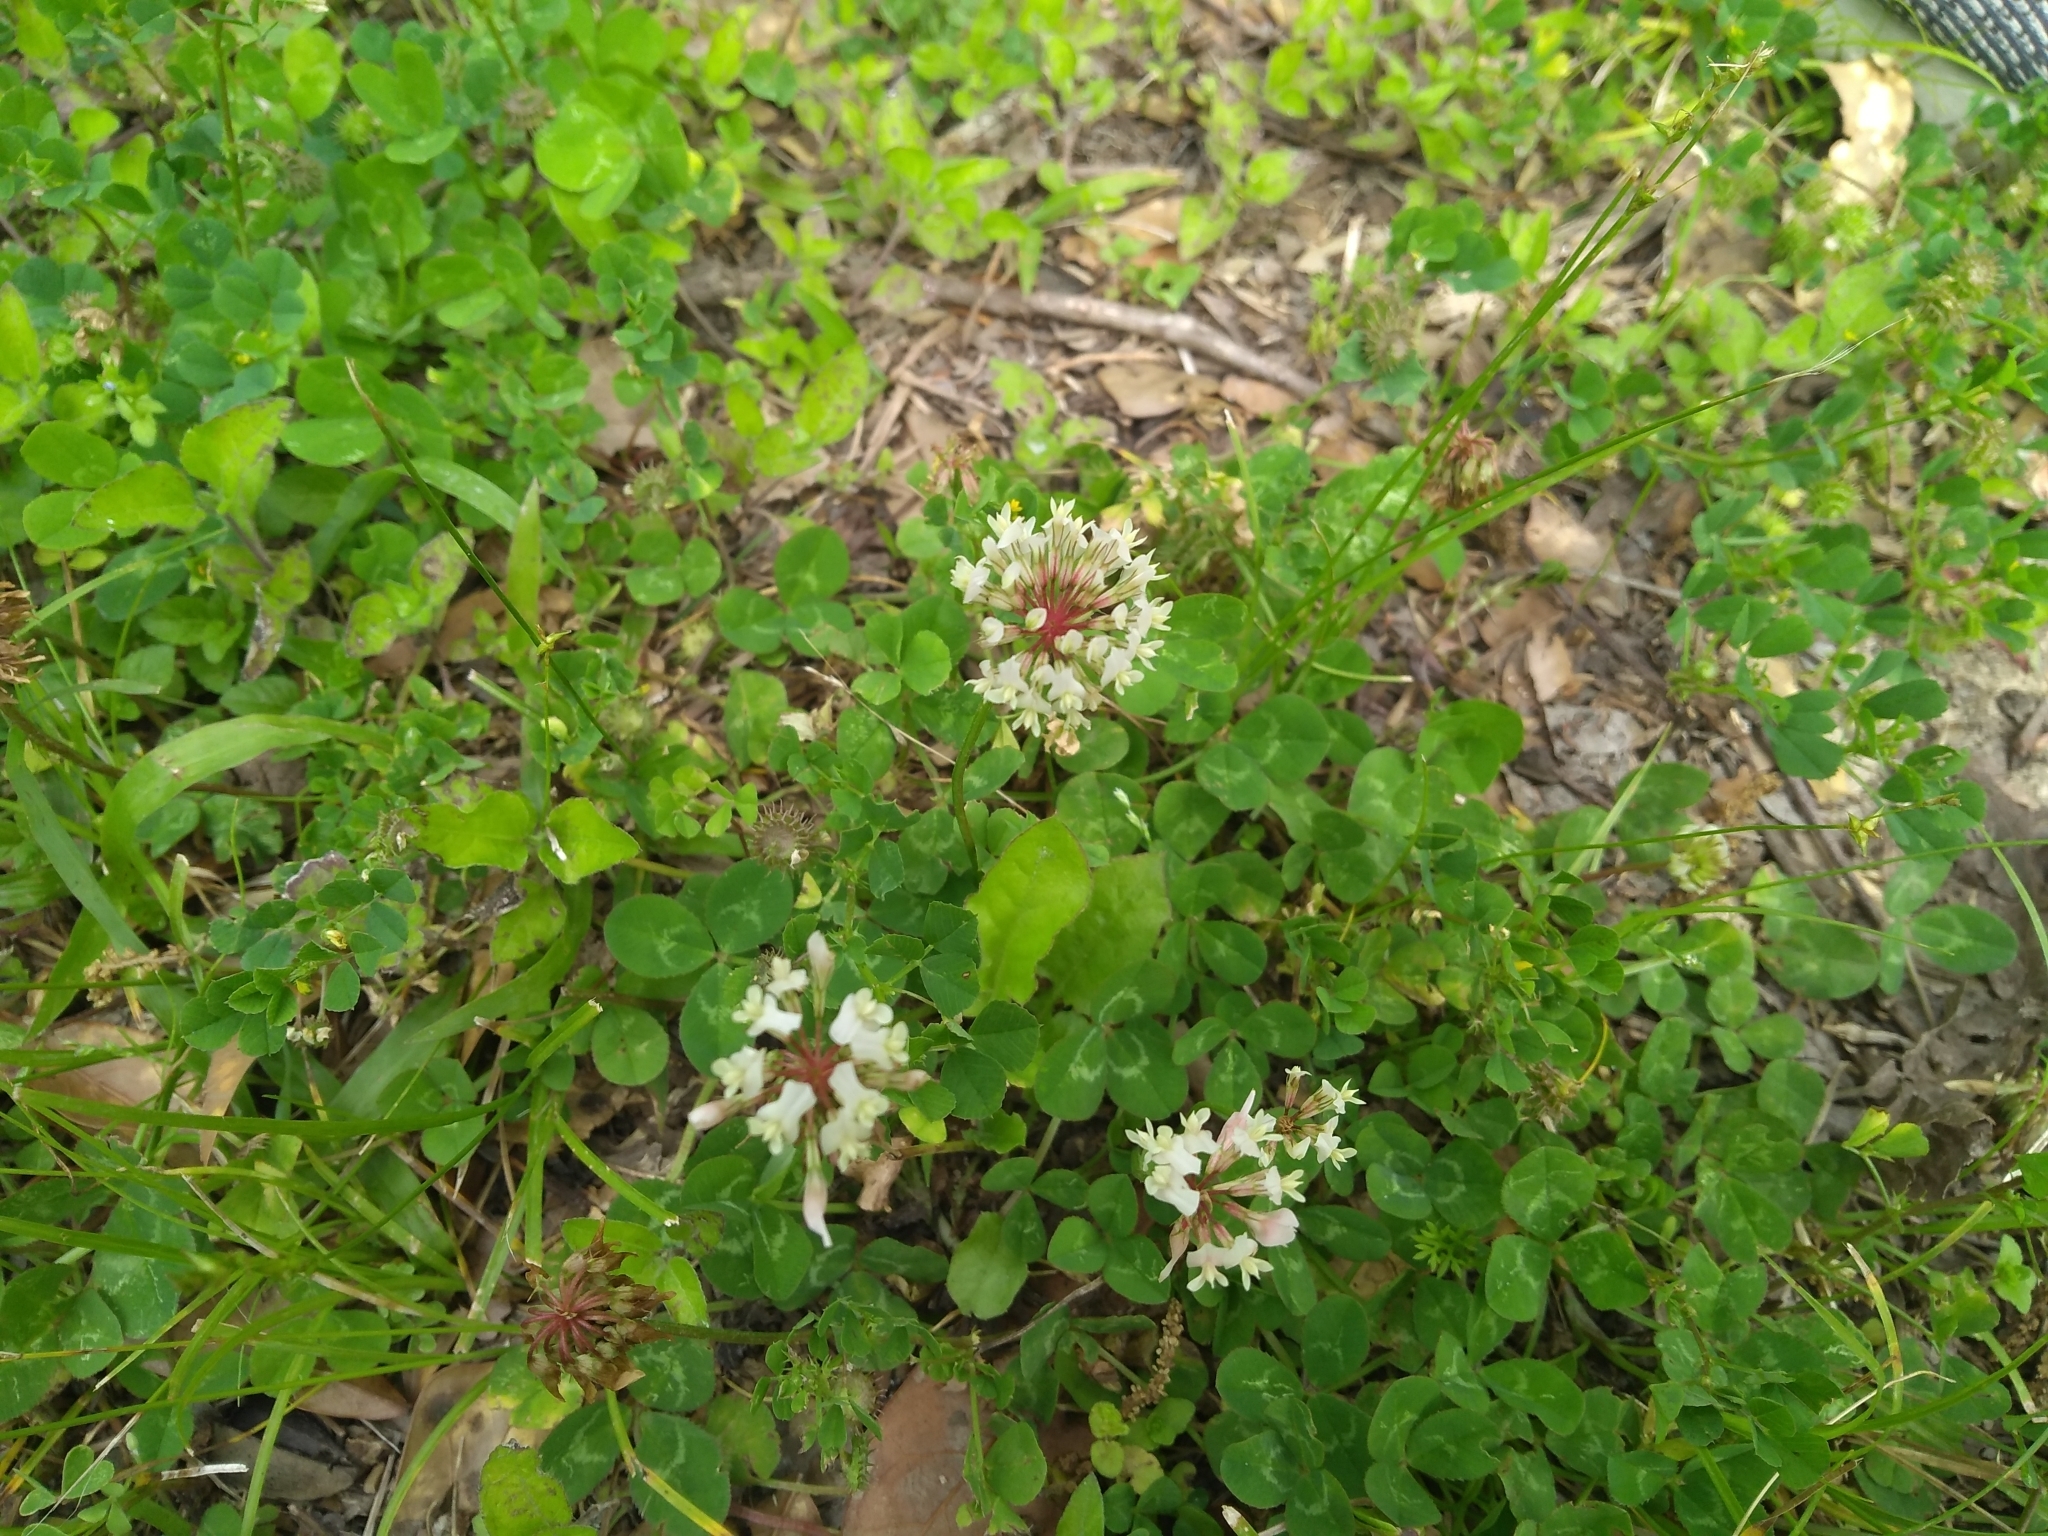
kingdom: Plantae
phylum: Tracheophyta
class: Magnoliopsida
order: Fabales
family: Fabaceae
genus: Trifolium
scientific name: Trifolium repens
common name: White clover
